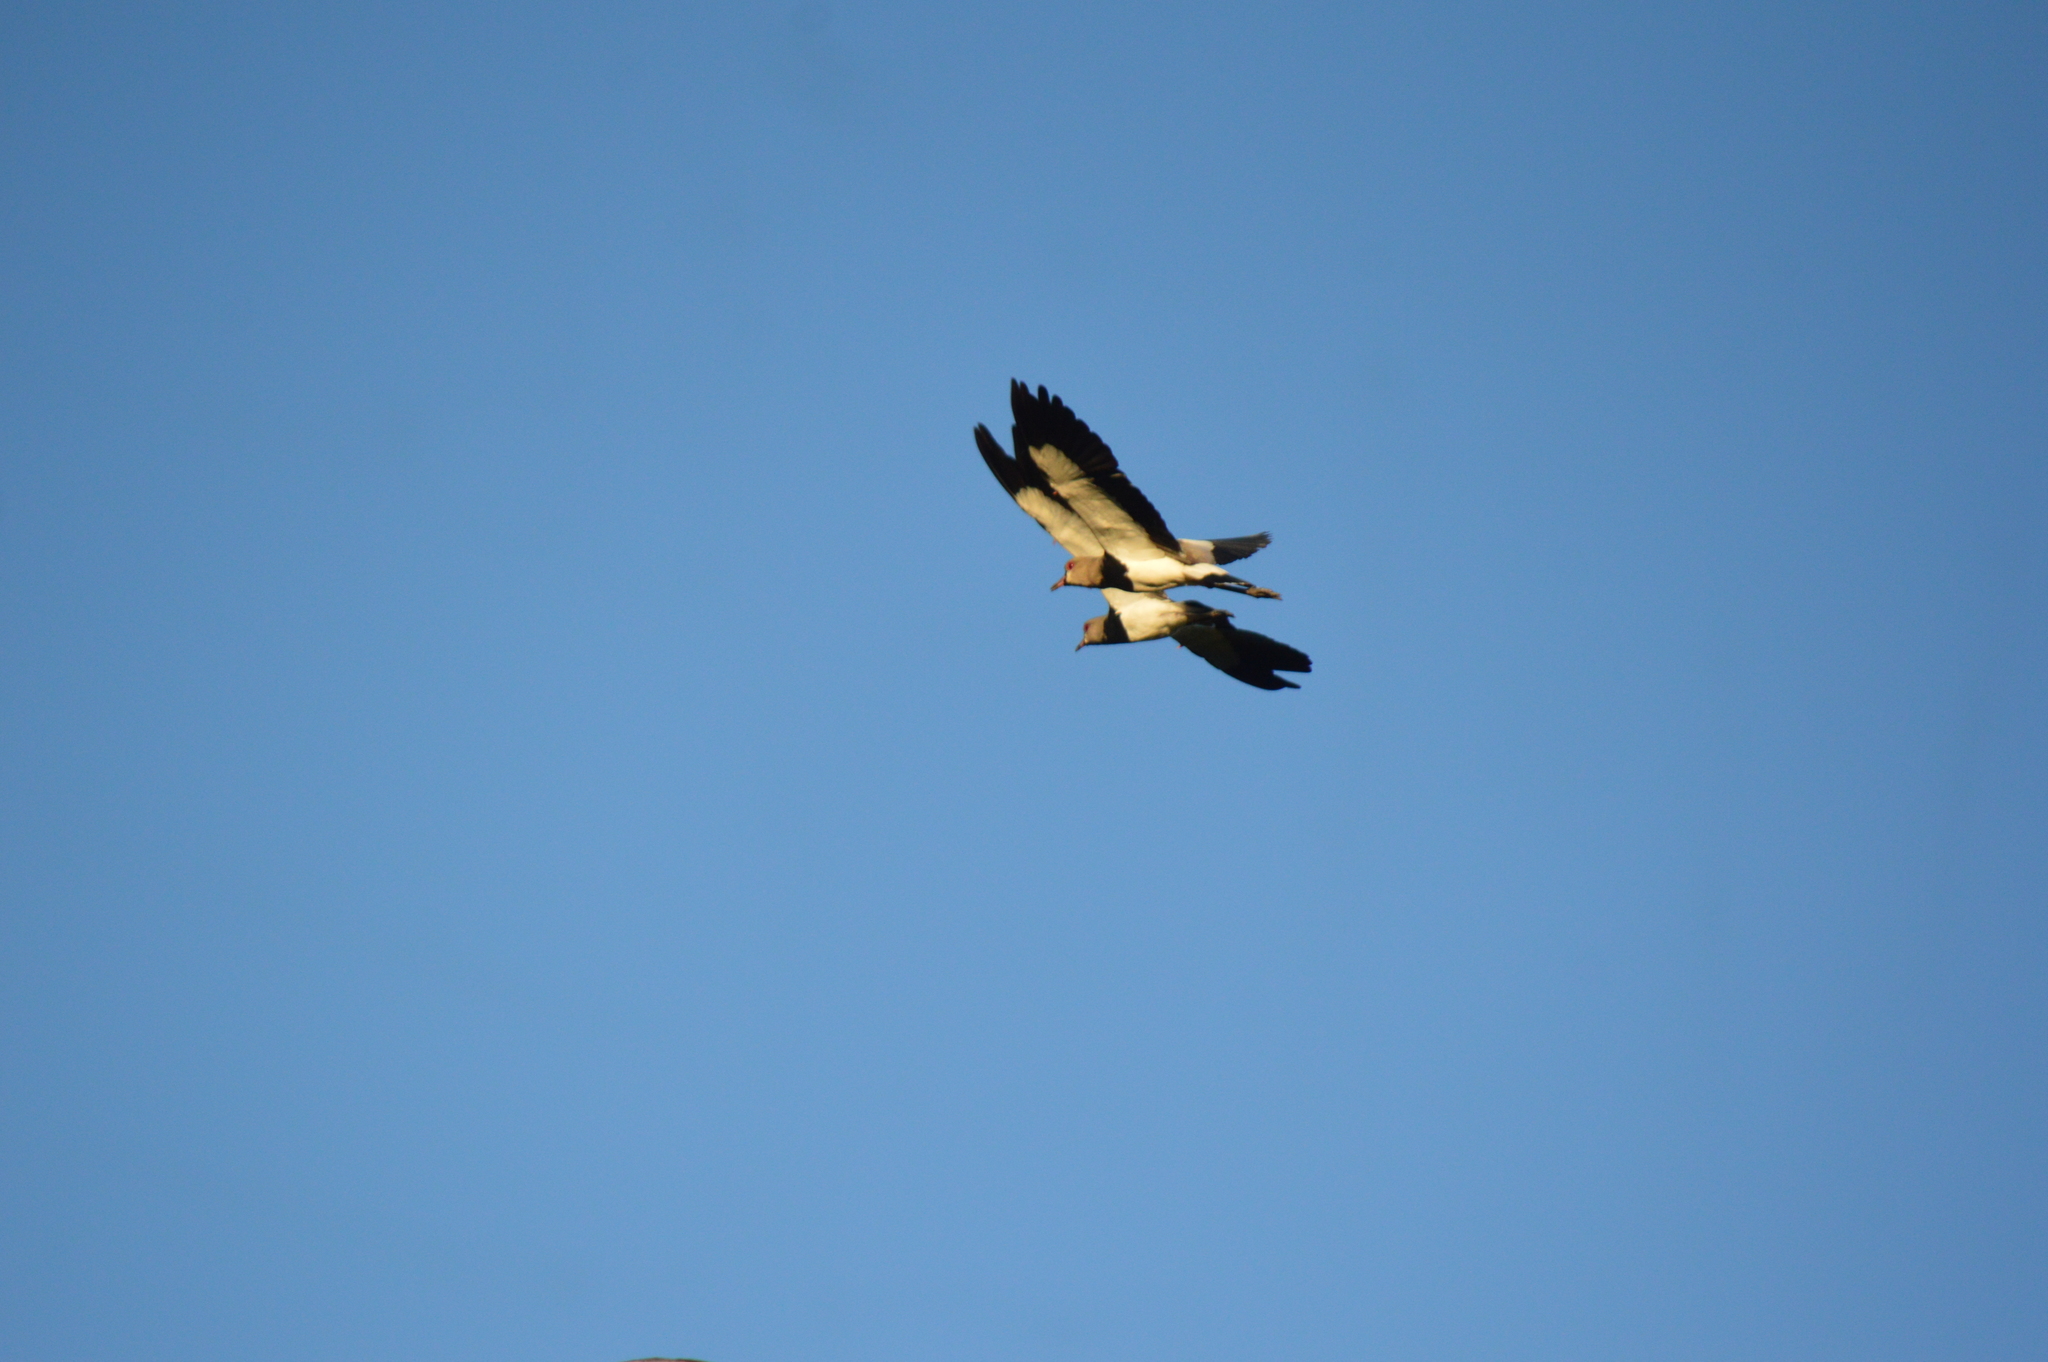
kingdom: Animalia
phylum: Chordata
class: Aves
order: Charadriiformes
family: Charadriidae
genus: Vanellus
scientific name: Vanellus chilensis
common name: Southern lapwing
